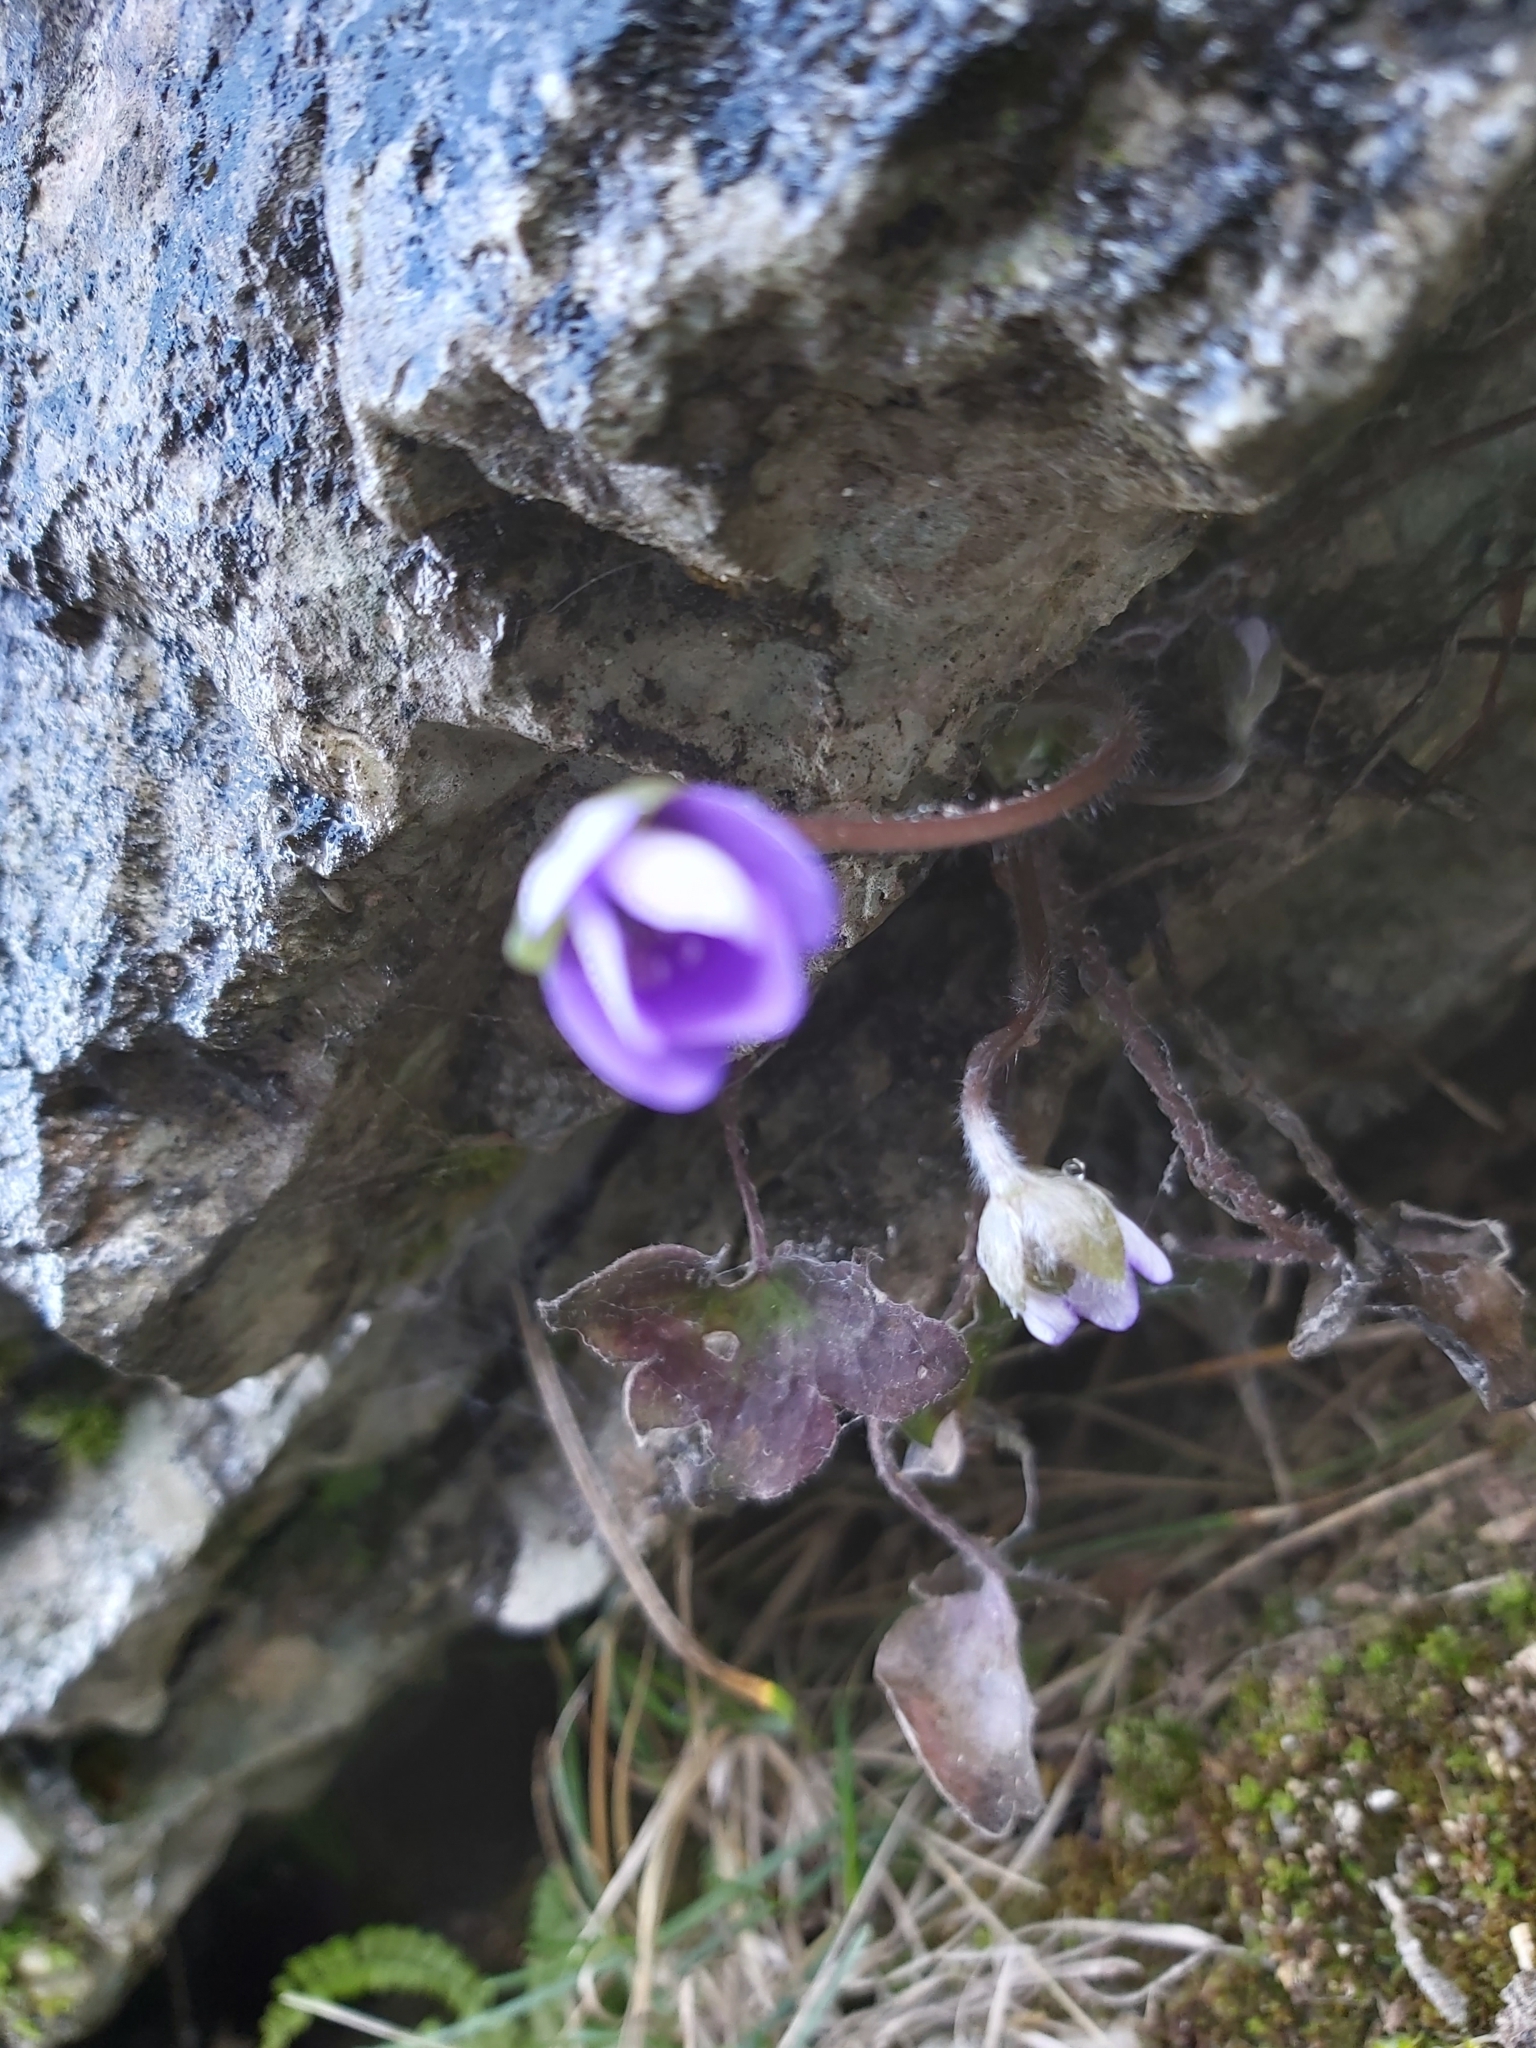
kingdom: Plantae
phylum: Tracheophyta
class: Magnoliopsida
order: Ranunculales
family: Ranunculaceae
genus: Hepatica
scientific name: Hepatica nobilis
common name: Liverleaf
